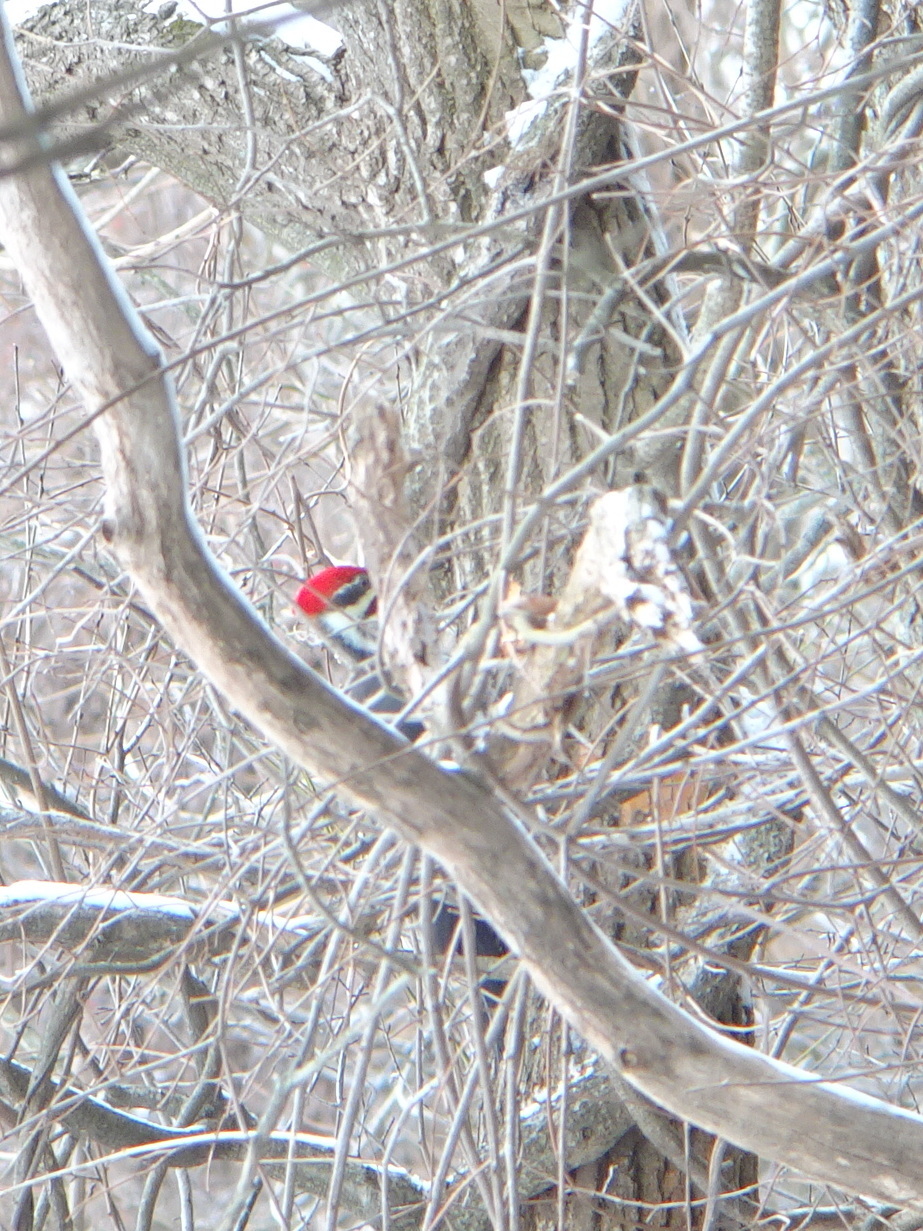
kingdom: Animalia
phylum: Chordata
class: Aves
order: Piciformes
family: Picidae
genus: Dryocopus
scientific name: Dryocopus pileatus
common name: Pileated woodpecker
